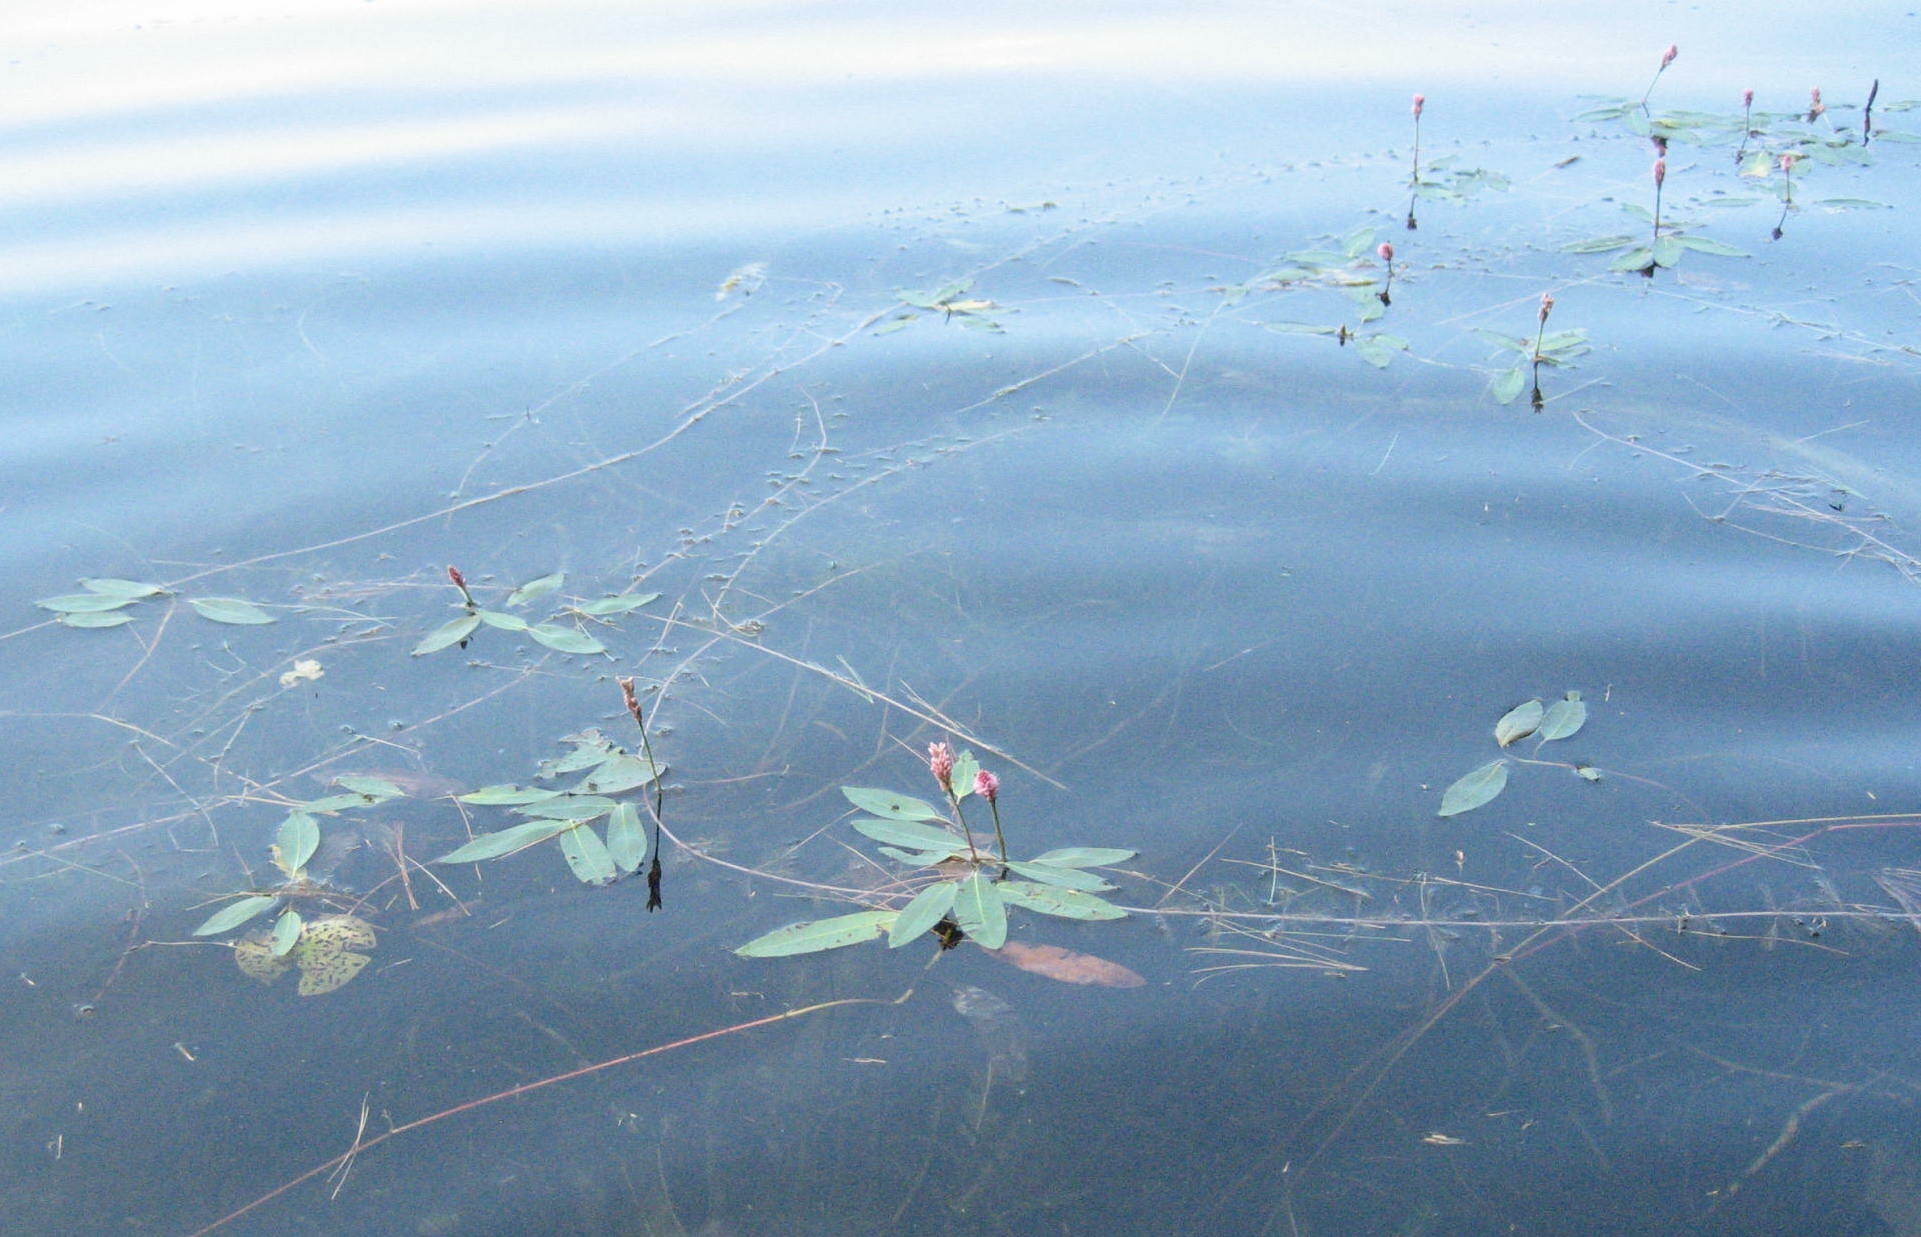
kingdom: Plantae
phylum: Tracheophyta
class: Magnoliopsida
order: Caryophyllales
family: Polygonaceae
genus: Persicaria
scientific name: Persicaria amphibia
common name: Amphibious bistort
